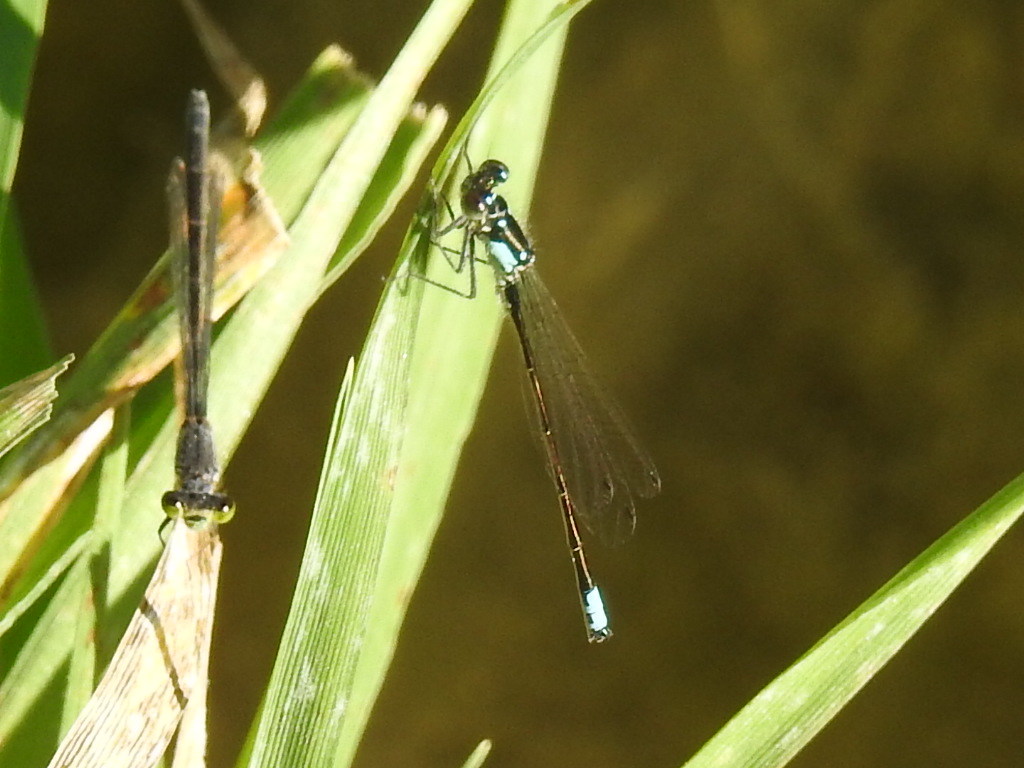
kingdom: Animalia
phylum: Arthropoda
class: Insecta
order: Odonata
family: Coenagrionidae
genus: Ischnura
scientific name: Ischnura cervula
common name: Pacific forktail
